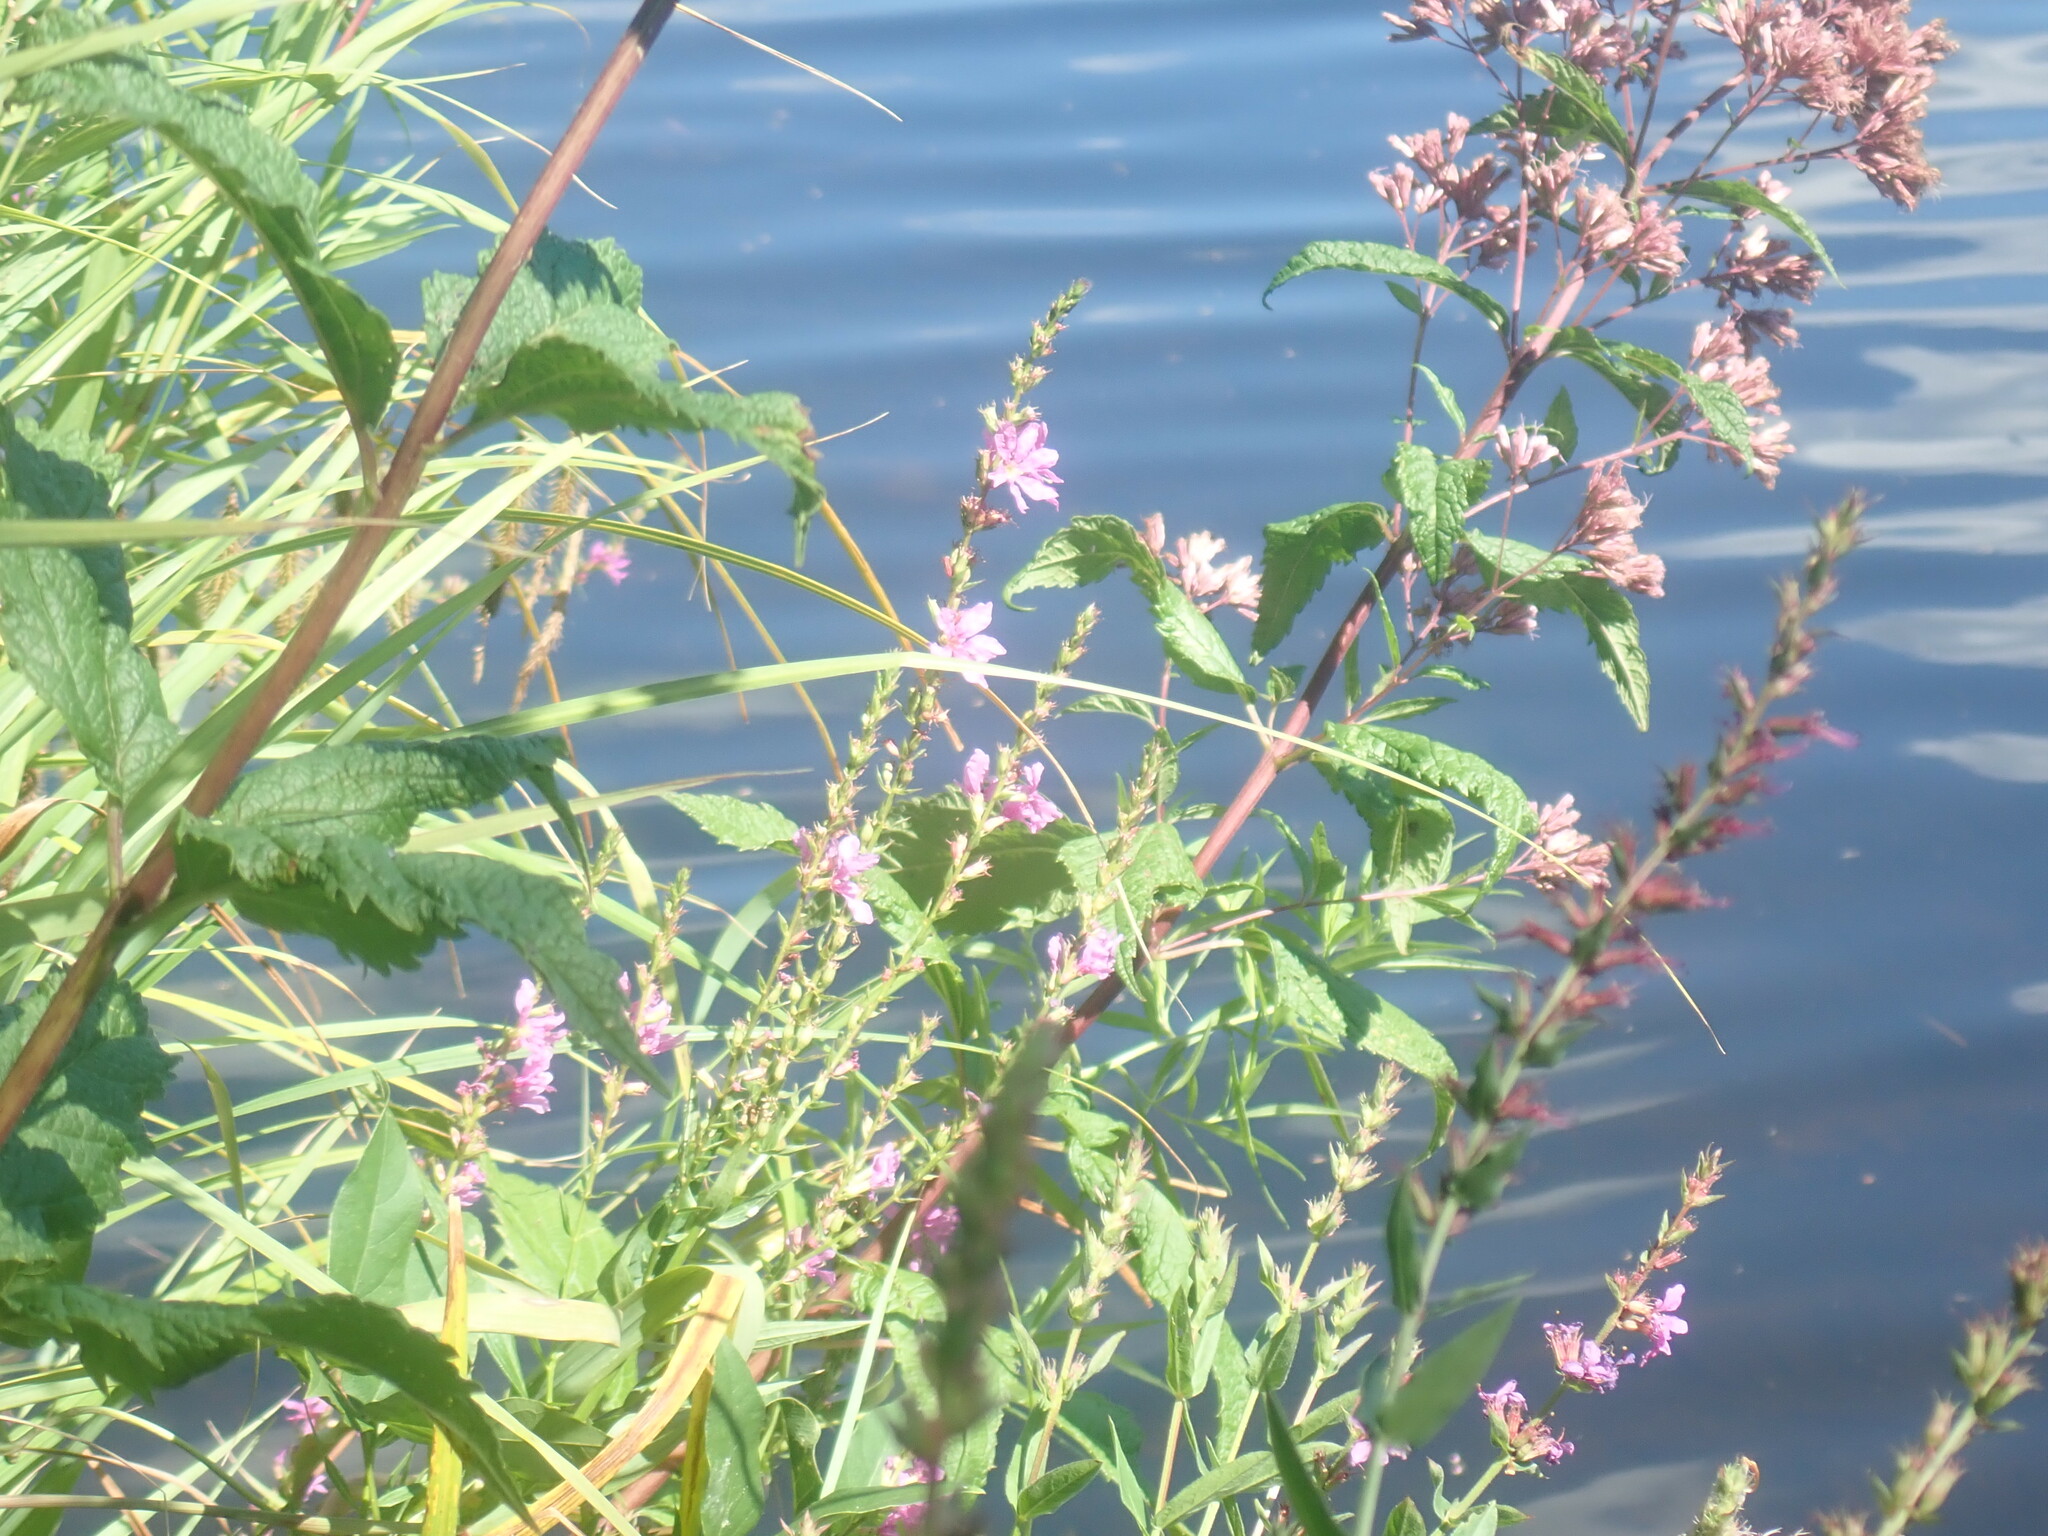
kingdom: Plantae
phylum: Tracheophyta
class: Magnoliopsida
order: Myrtales
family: Lythraceae
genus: Lythrum
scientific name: Lythrum salicaria
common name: Purple loosestrife
